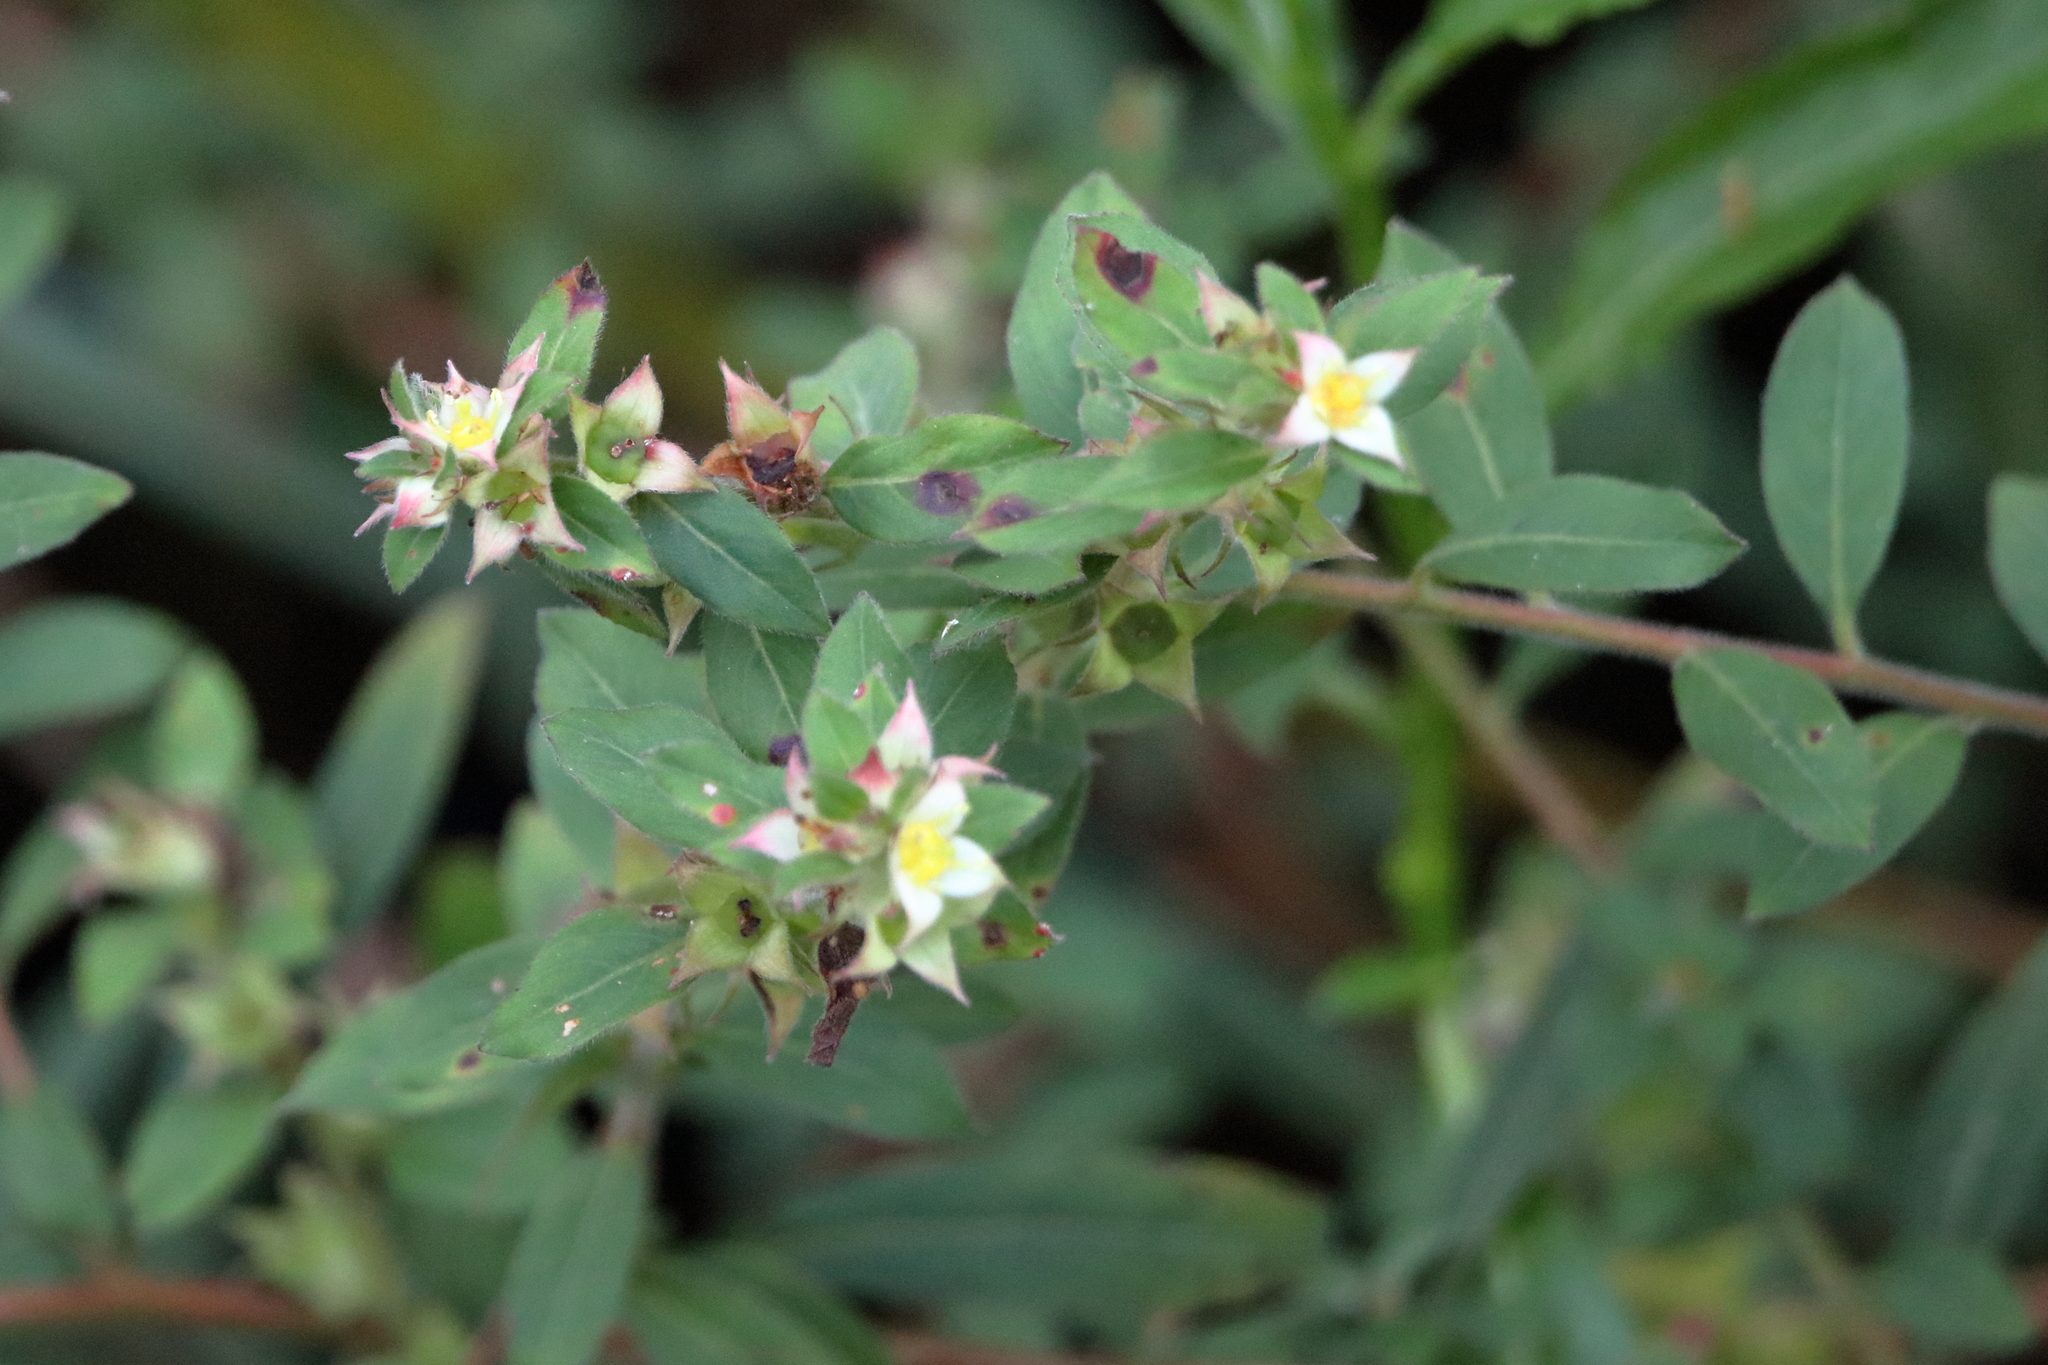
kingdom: Plantae
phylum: Tracheophyta
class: Magnoliopsida
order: Myrtales
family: Onagraceae
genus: Ludwigia
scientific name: Ludwigia pilosa
